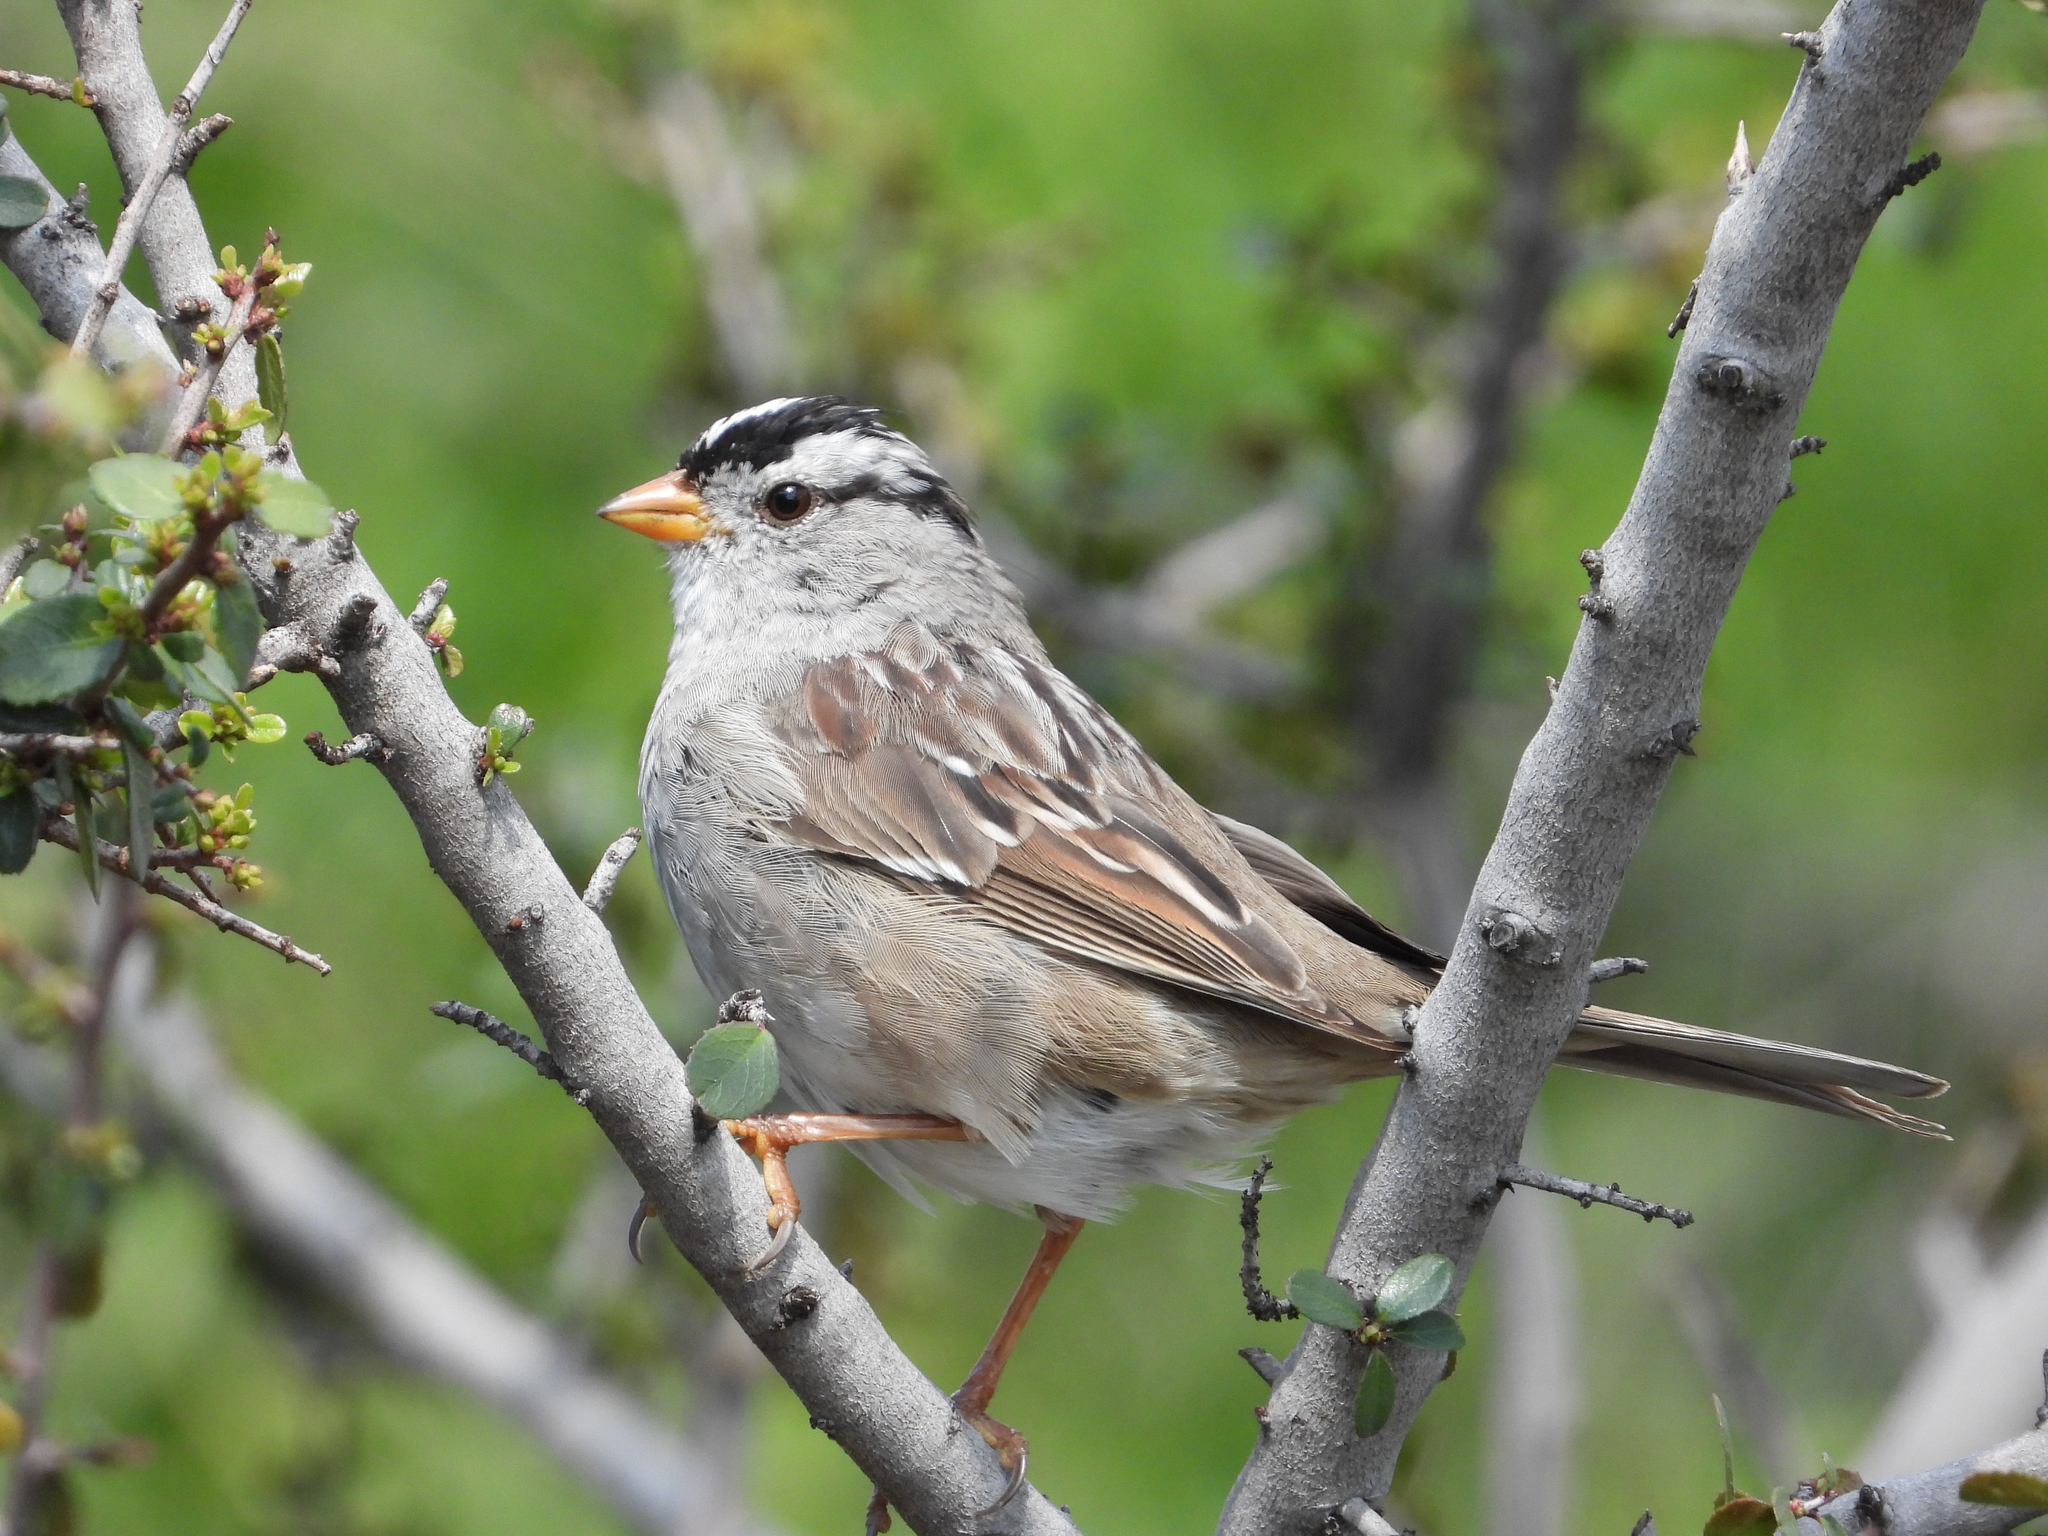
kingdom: Animalia
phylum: Chordata
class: Aves
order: Passeriformes
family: Passerellidae
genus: Zonotrichia
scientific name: Zonotrichia leucophrys
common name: White-crowned sparrow
